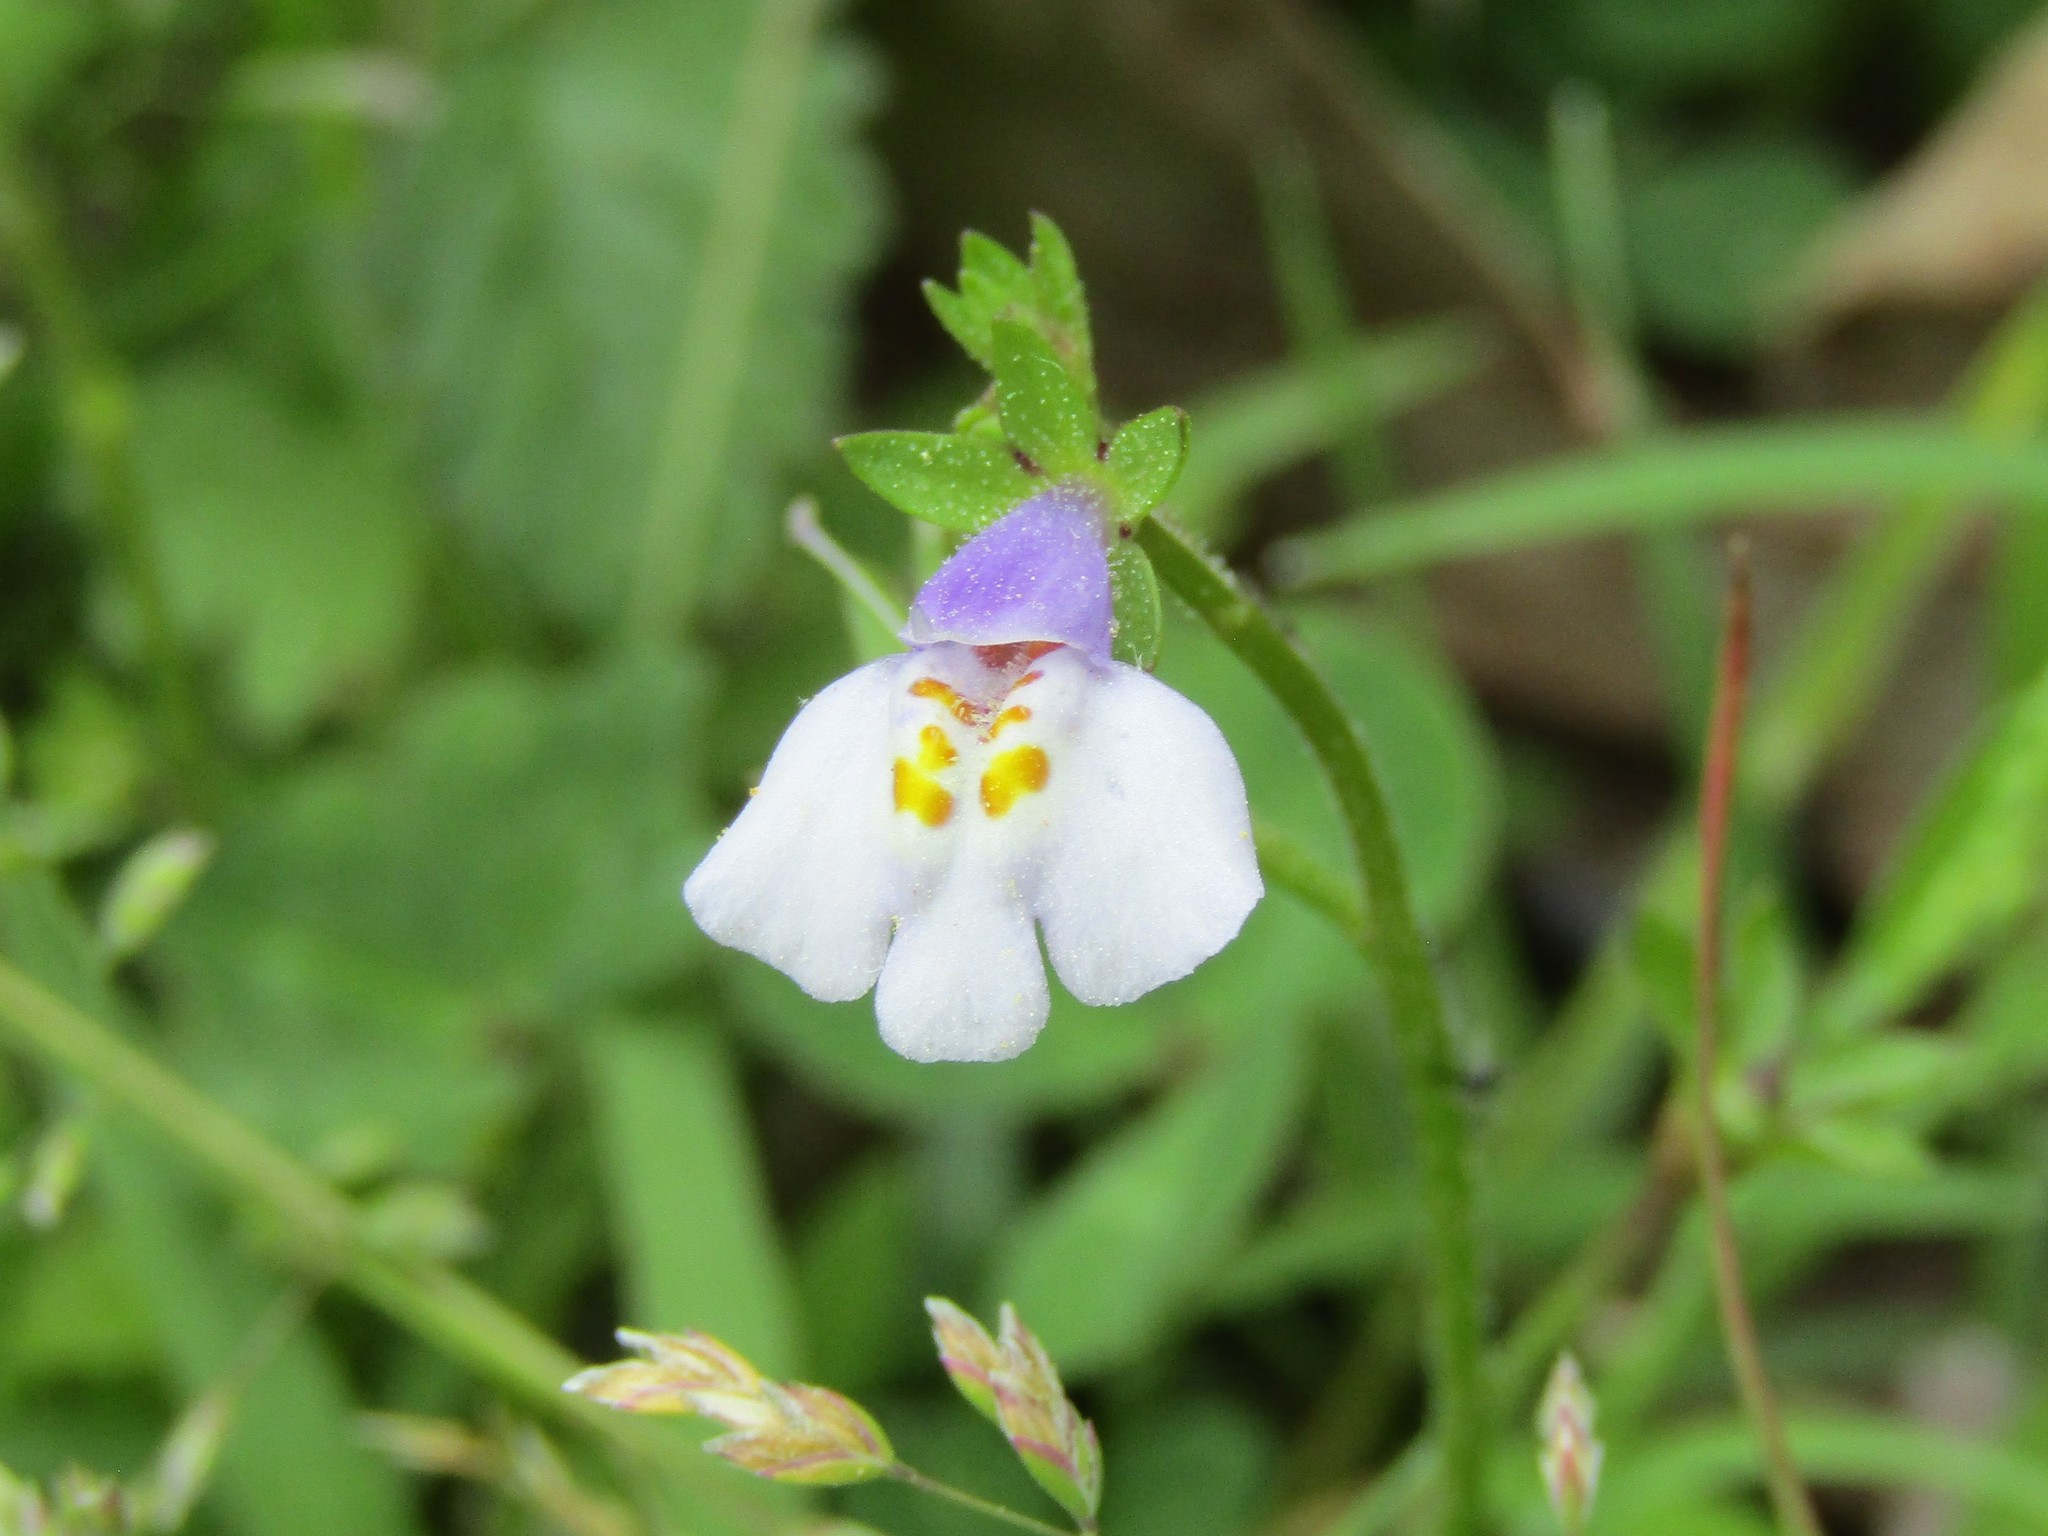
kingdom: Plantae
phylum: Tracheophyta
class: Magnoliopsida
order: Lamiales
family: Mazaceae
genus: Mazus
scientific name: Mazus pumilus
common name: Japanese mazus
